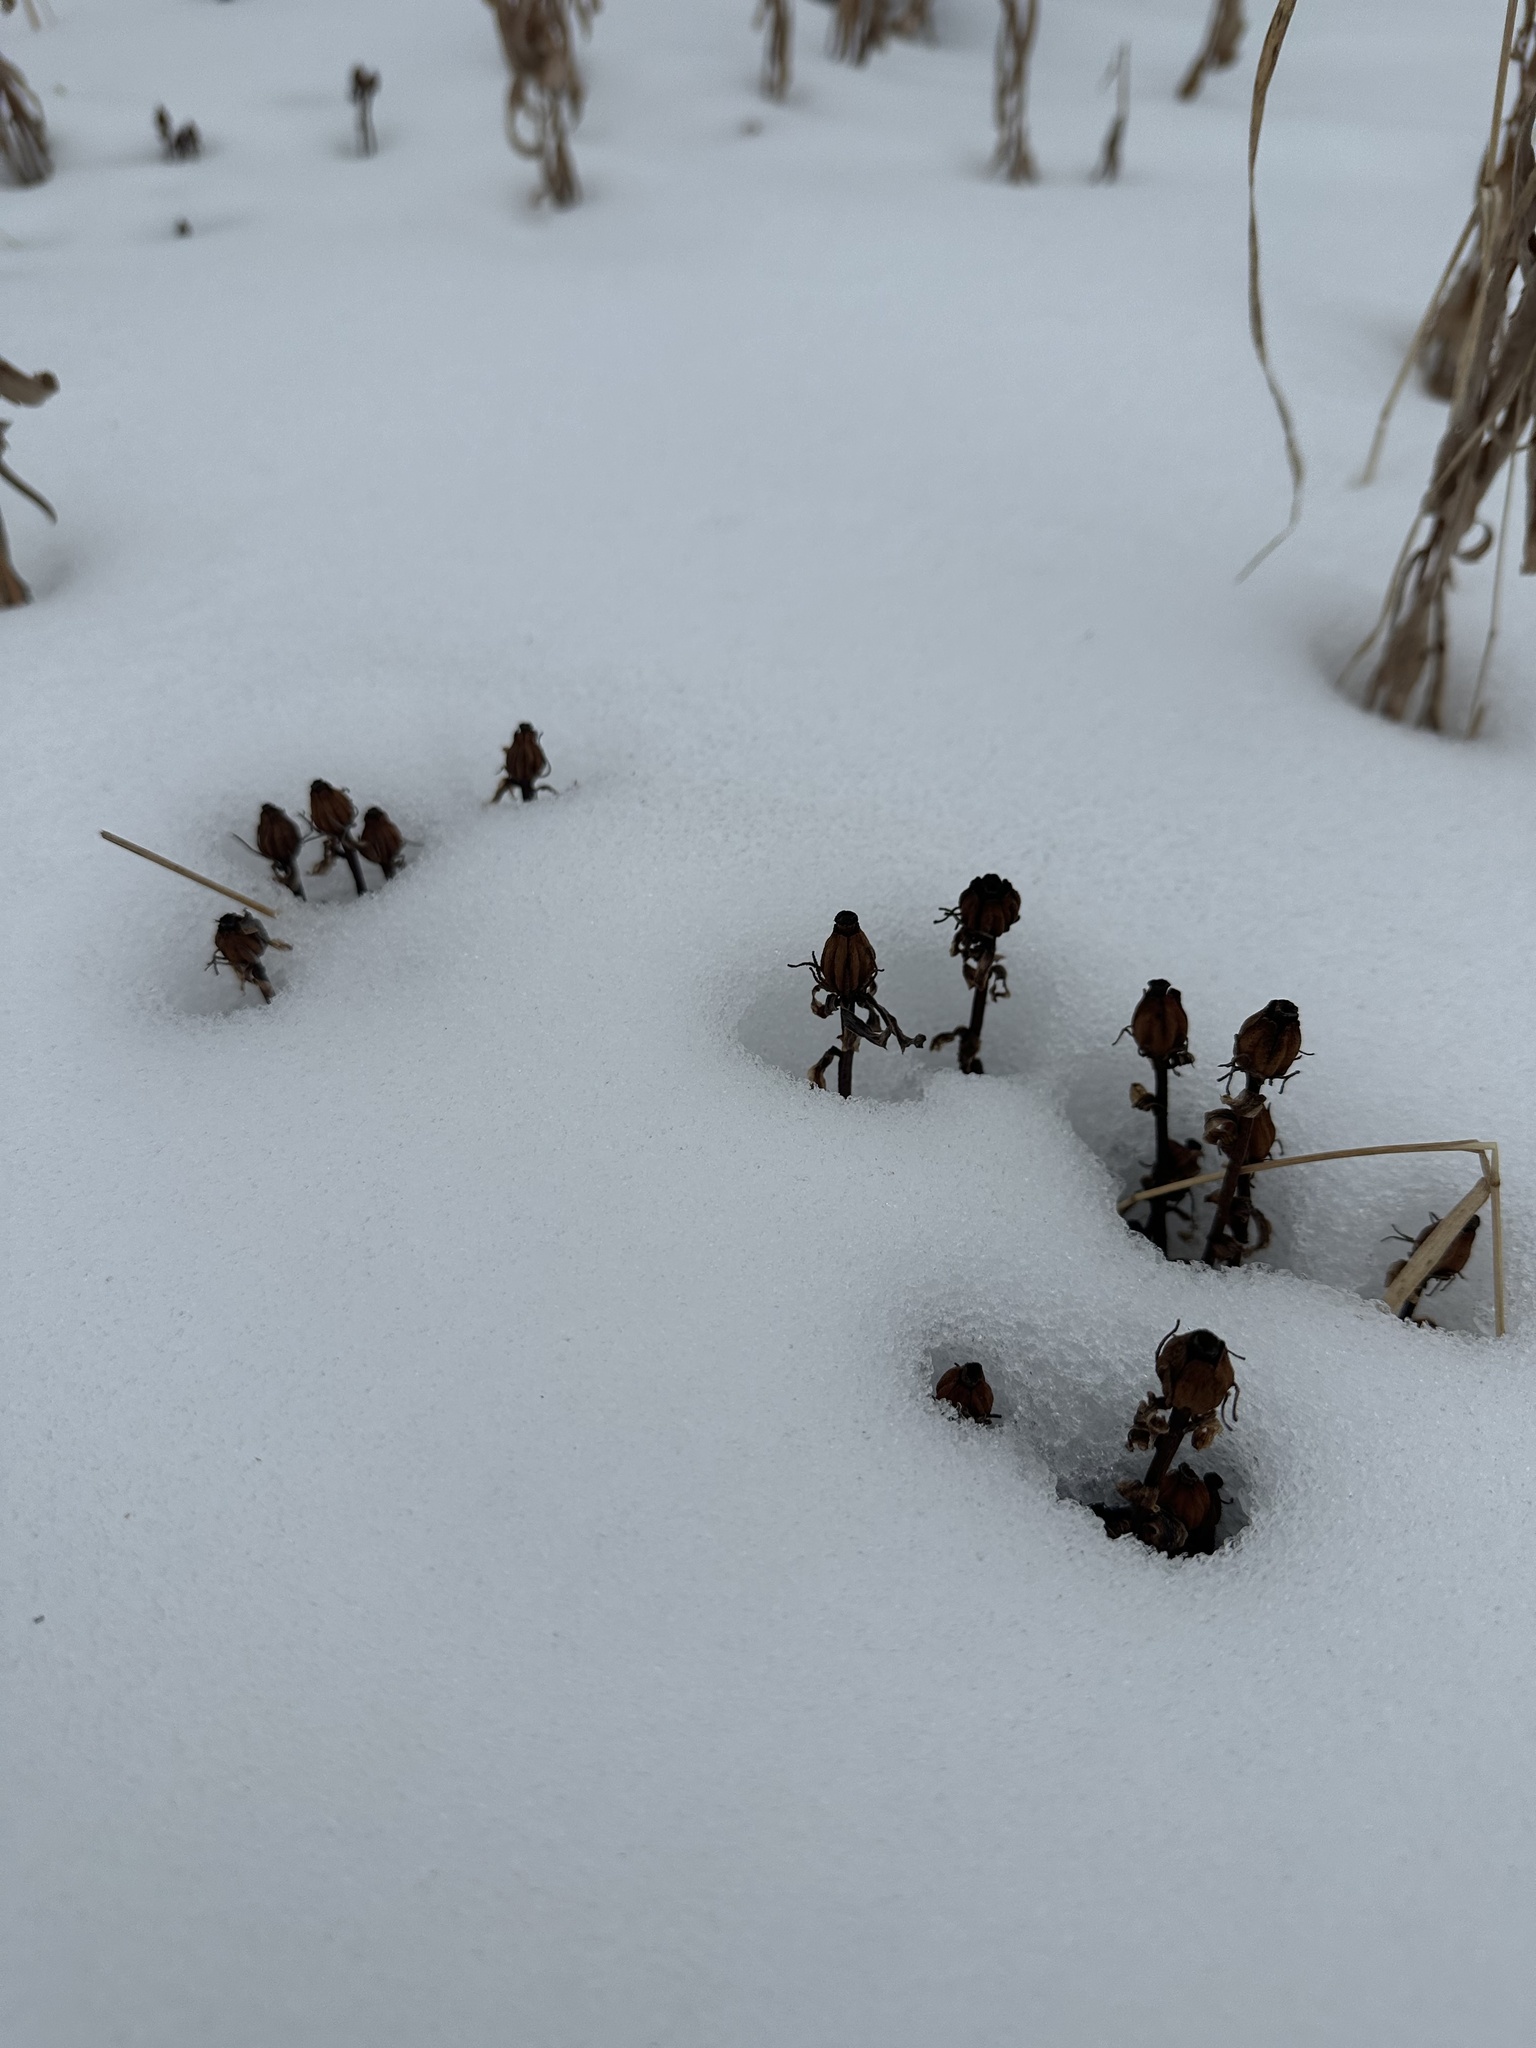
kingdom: Plantae
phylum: Tracheophyta
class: Magnoliopsida
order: Ericales
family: Ericaceae
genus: Monotropa
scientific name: Monotropa uniflora
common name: Convulsion root
